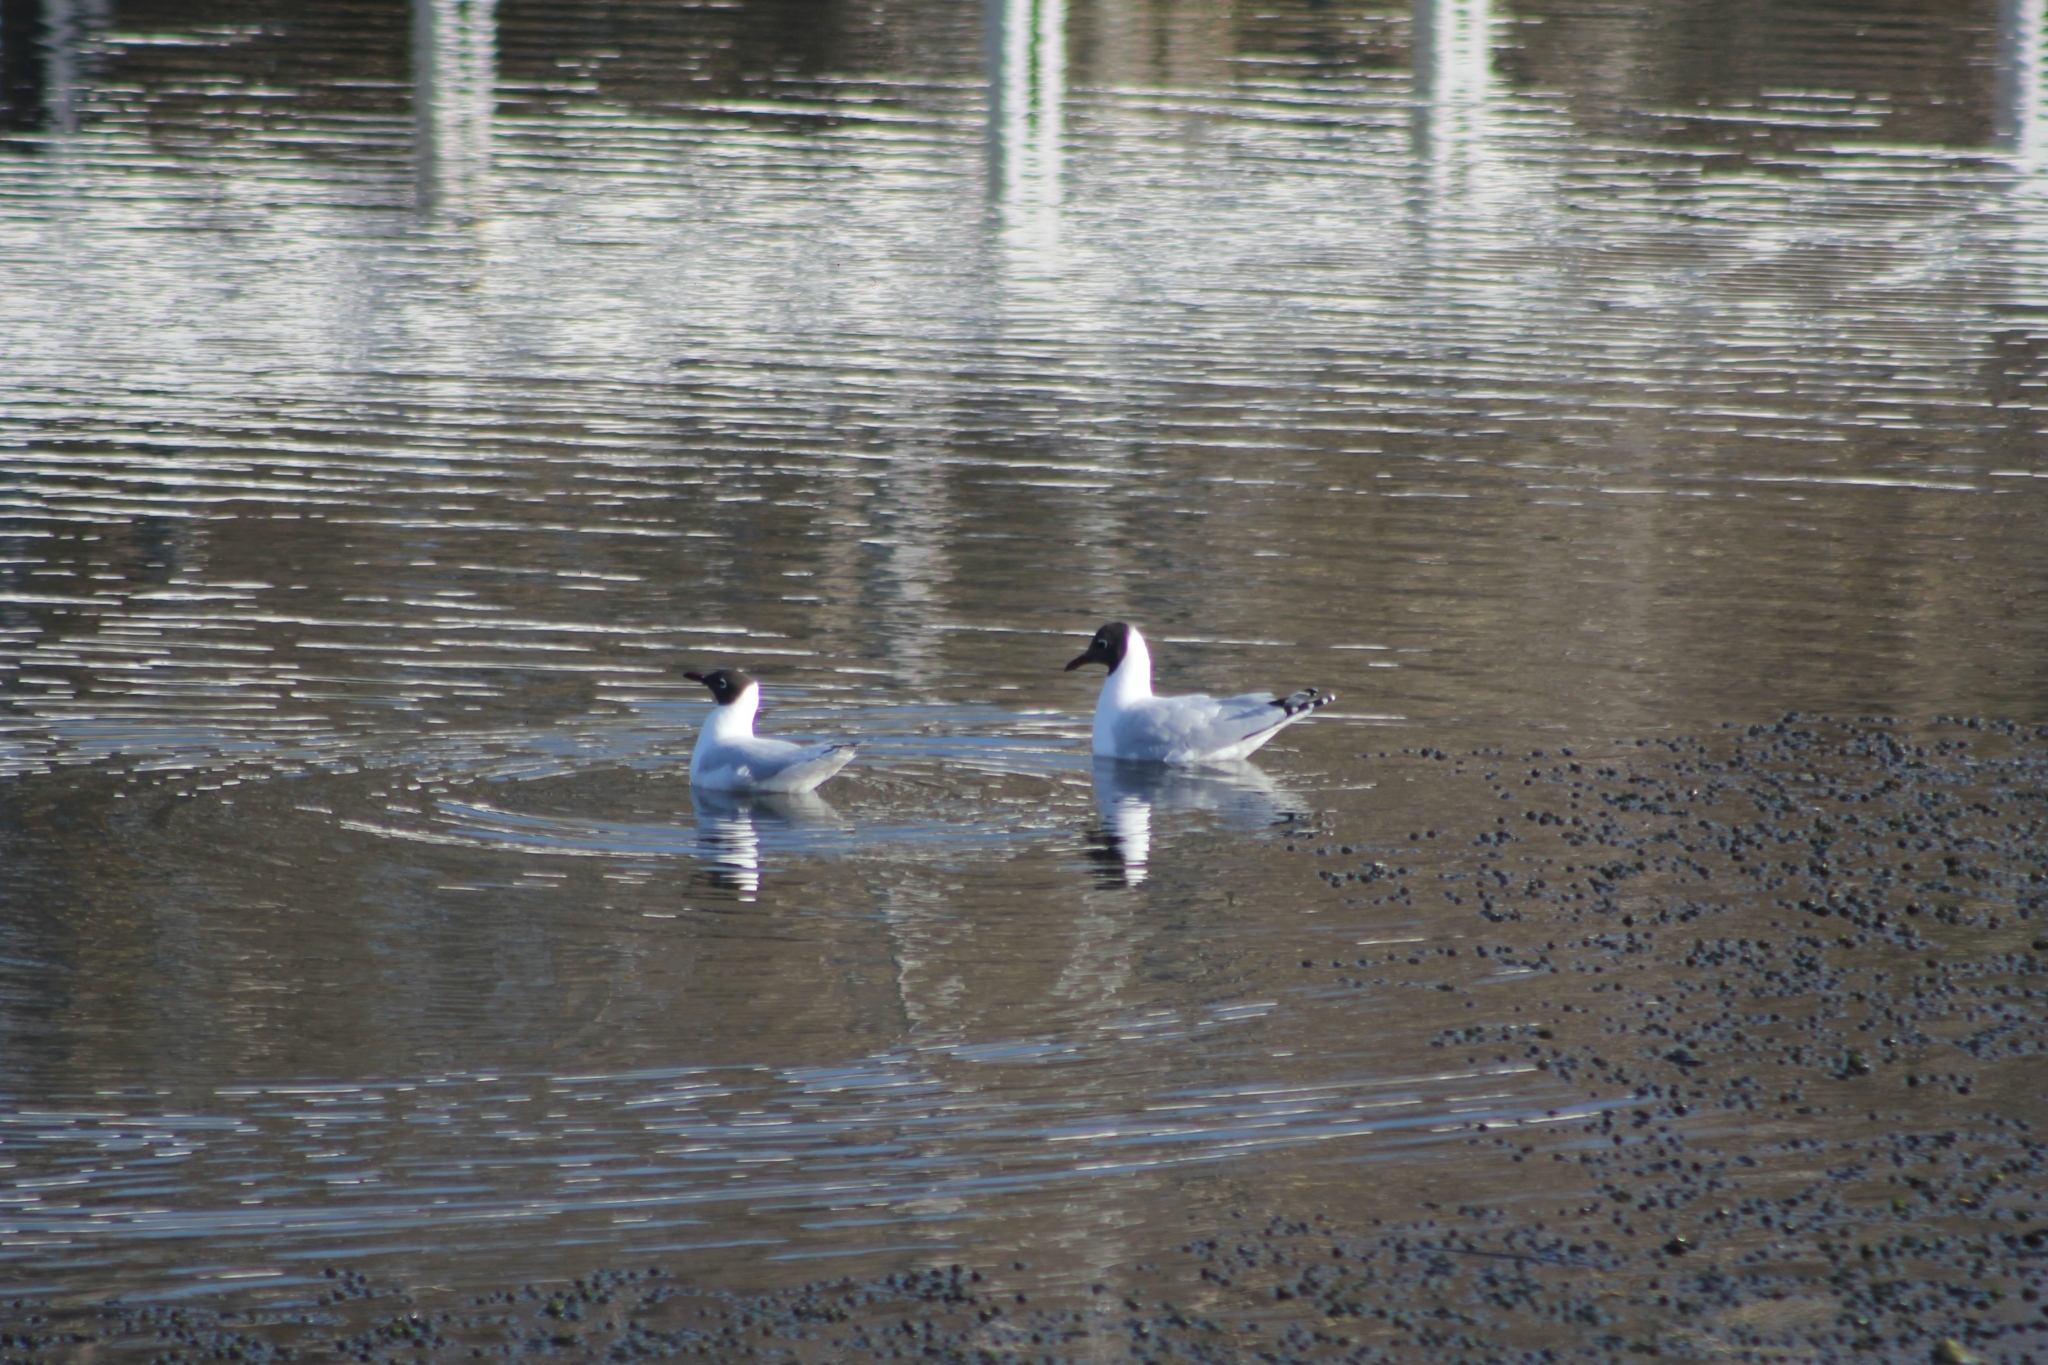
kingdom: Animalia
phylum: Chordata
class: Aves
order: Charadriiformes
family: Laridae
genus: Chroicocephalus
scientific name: Chroicocephalus maculipennis
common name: Brown-hooded gull
